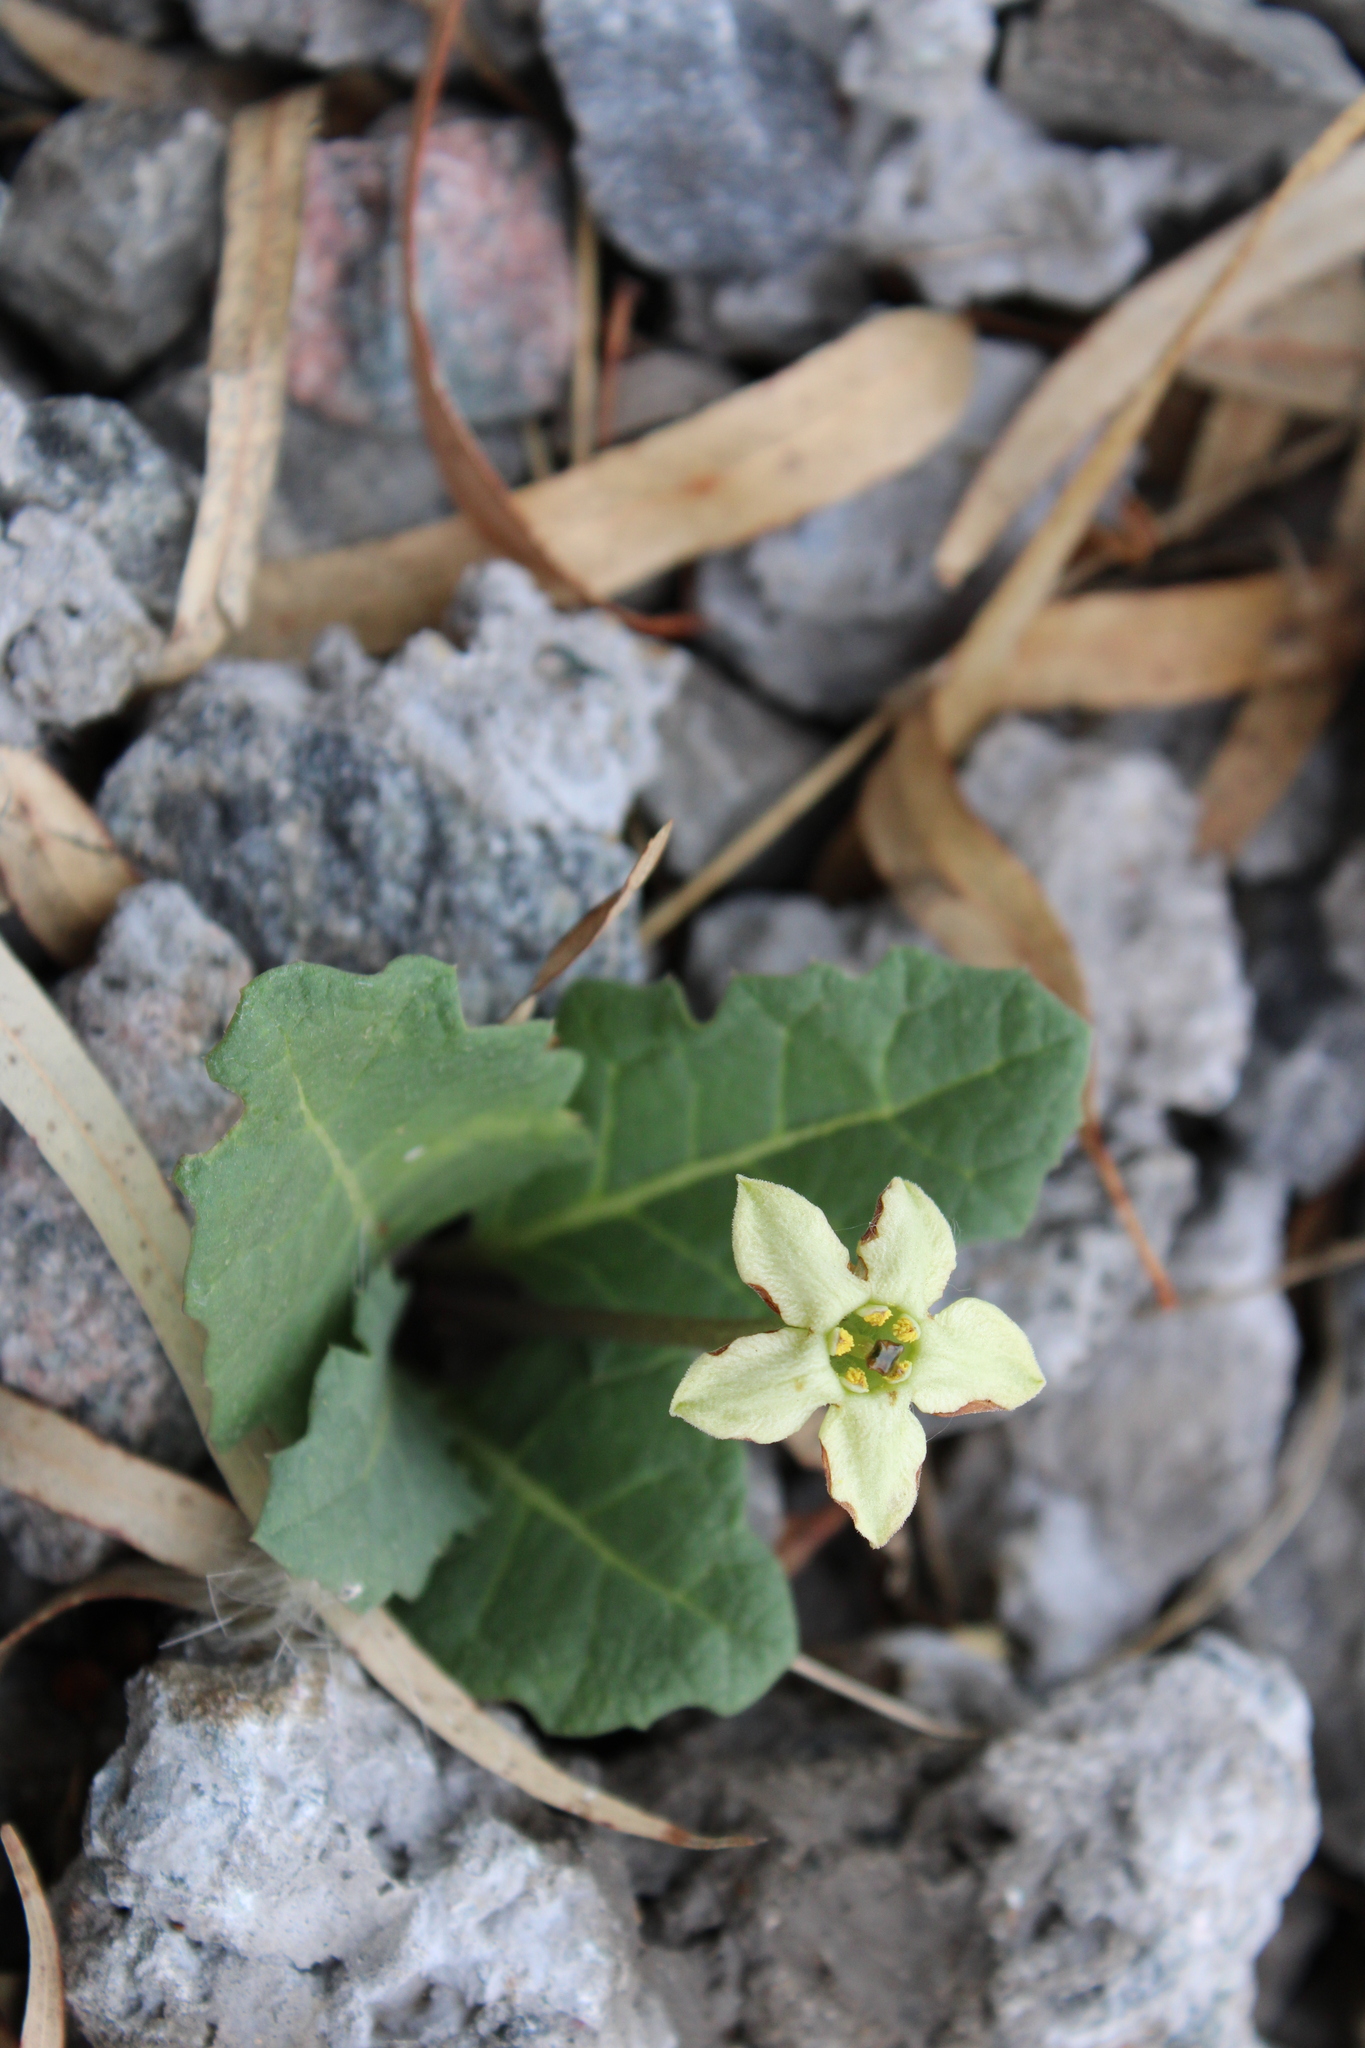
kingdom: Plantae
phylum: Tracheophyta
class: Magnoliopsida
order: Solanales
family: Solanaceae
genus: Jaborosa
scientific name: Jaborosa runcinata
